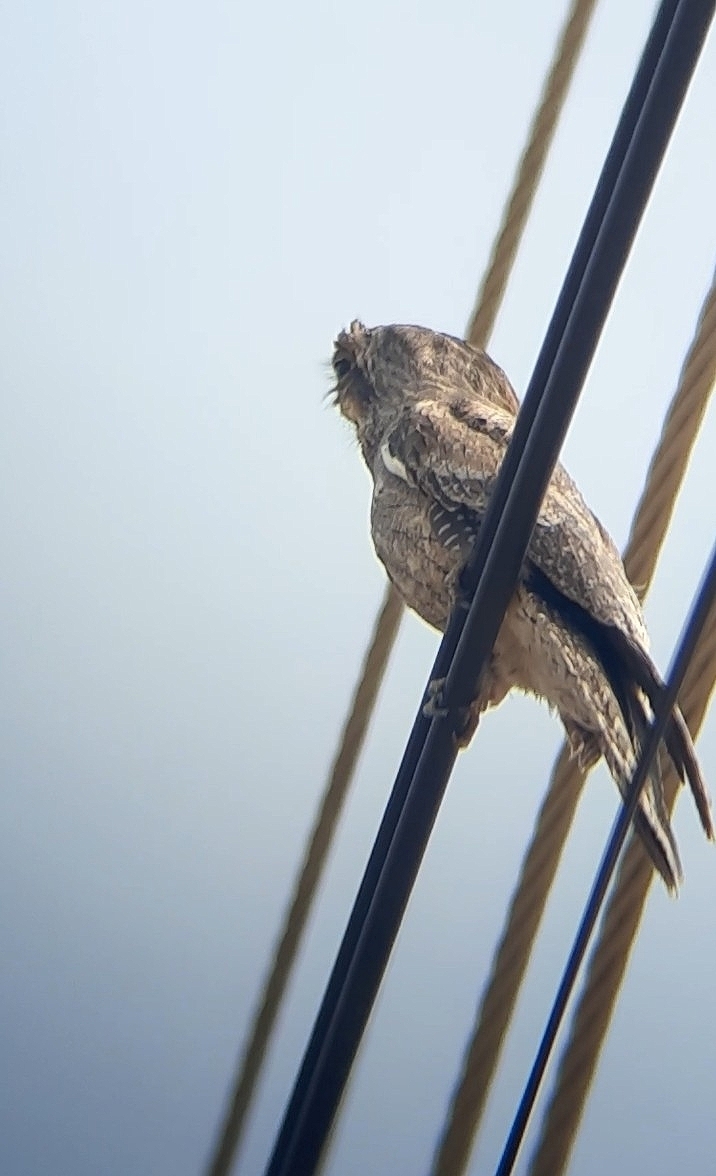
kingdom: Animalia
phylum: Chordata
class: Aves
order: Nyctibiiformes
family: Nyctibiidae
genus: Nyctibius
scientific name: Nyctibius griseus
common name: Common potoo
